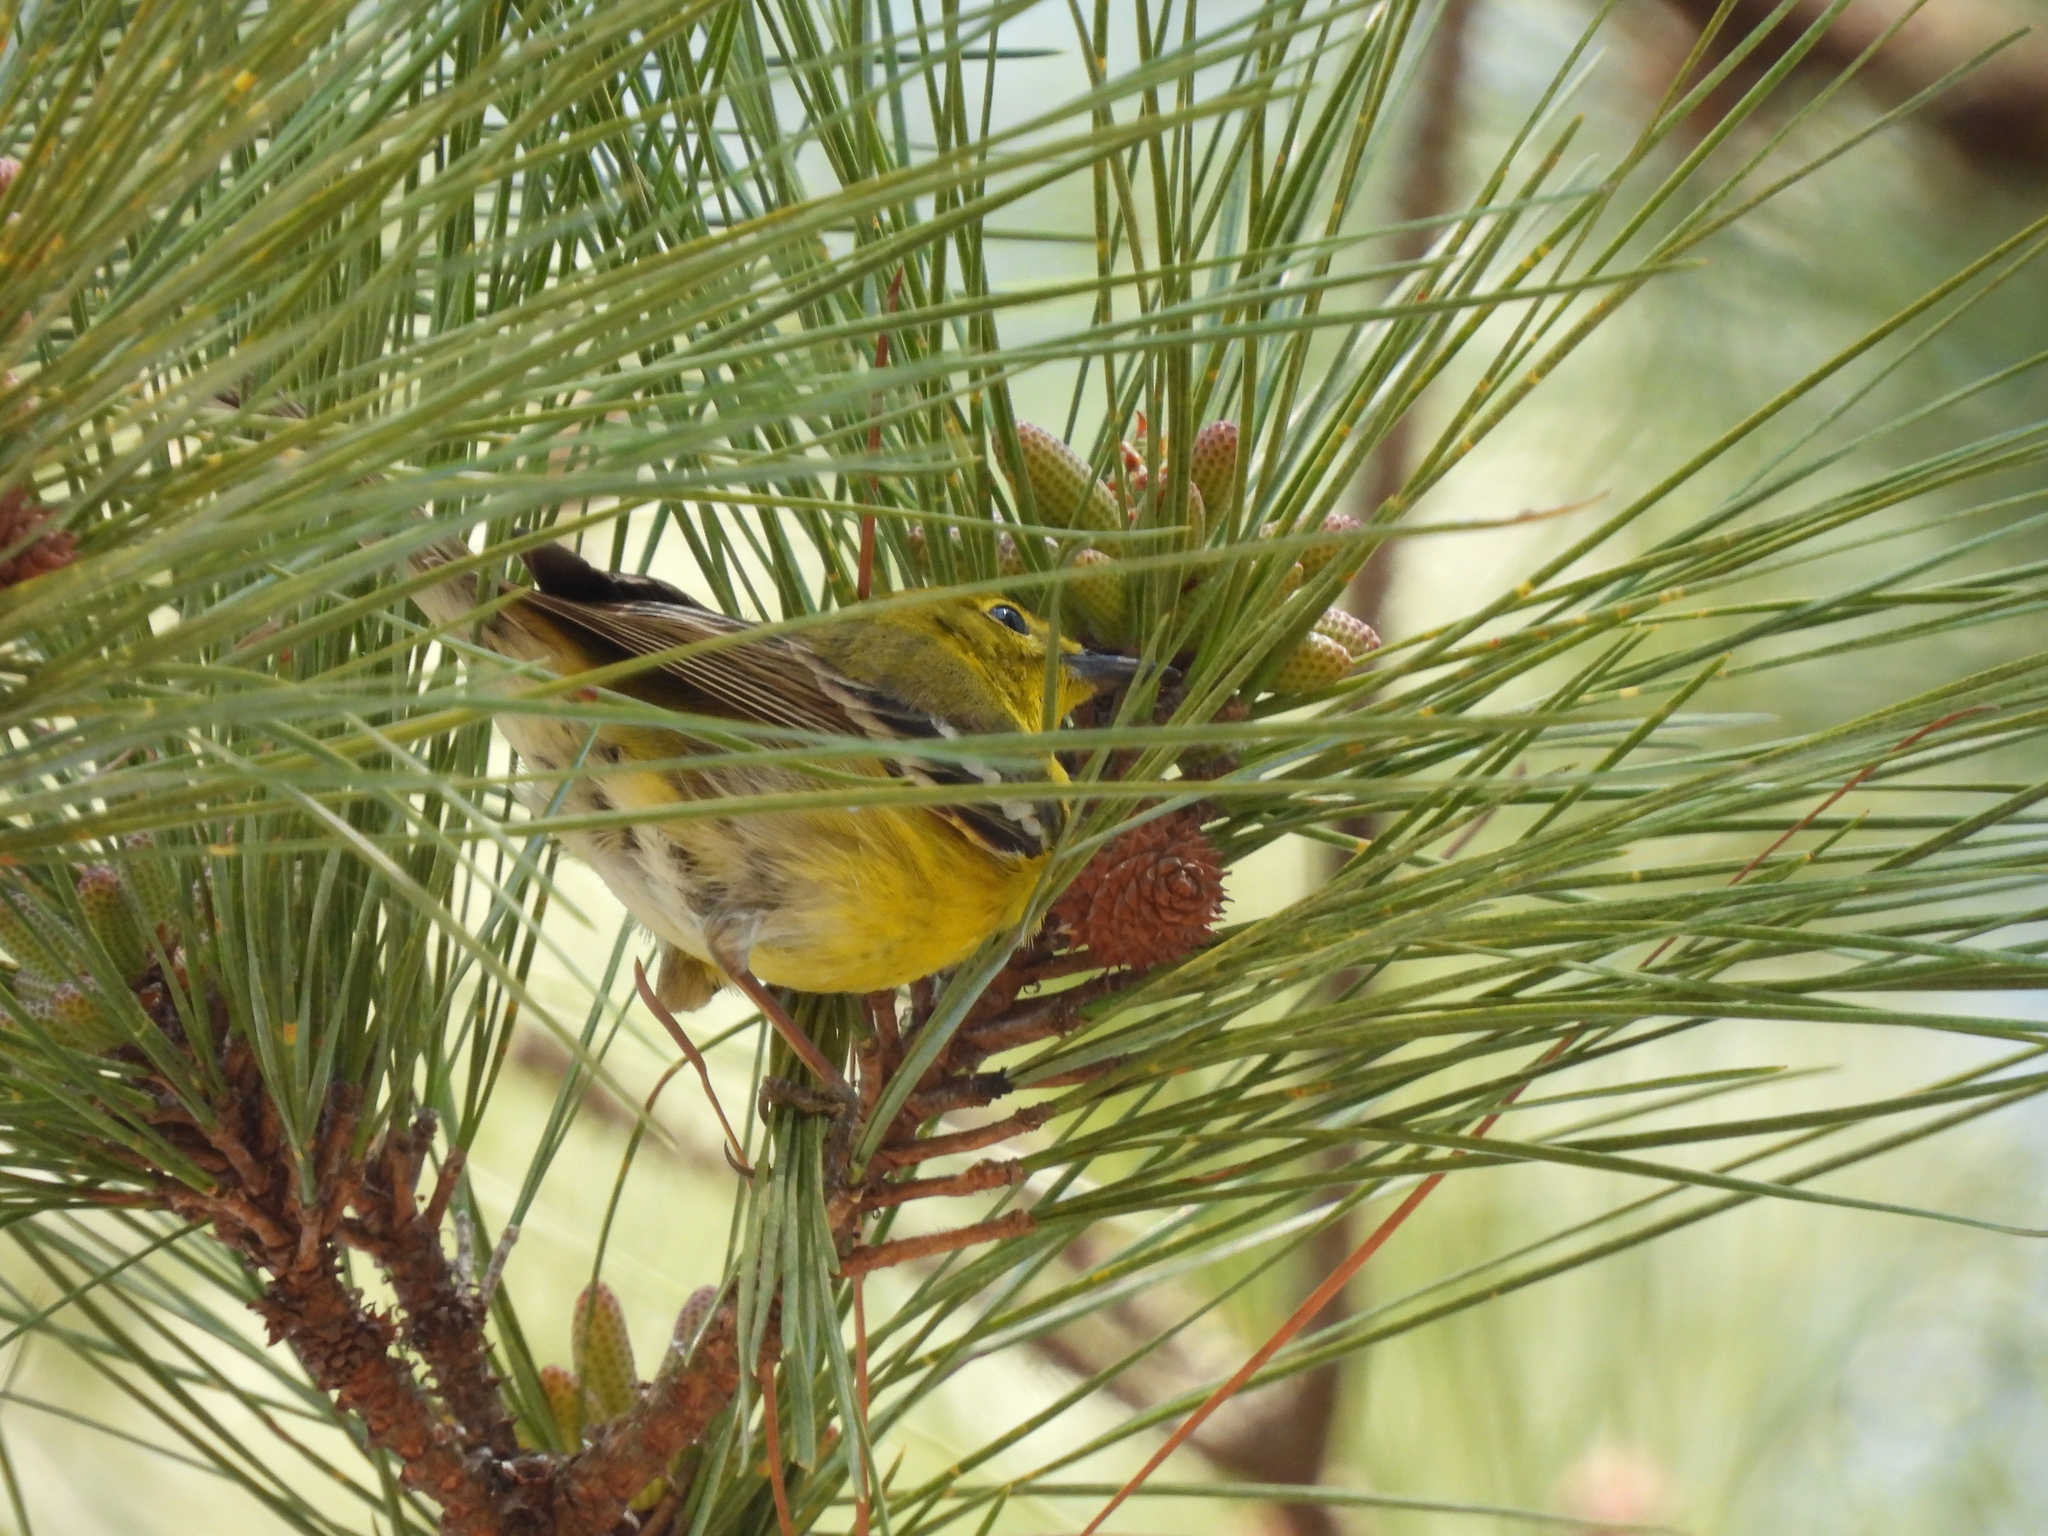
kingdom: Animalia
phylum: Chordata
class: Aves
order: Passeriformes
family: Parulidae
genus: Setophaga
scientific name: Setophaga pinus
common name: Pine warbler
